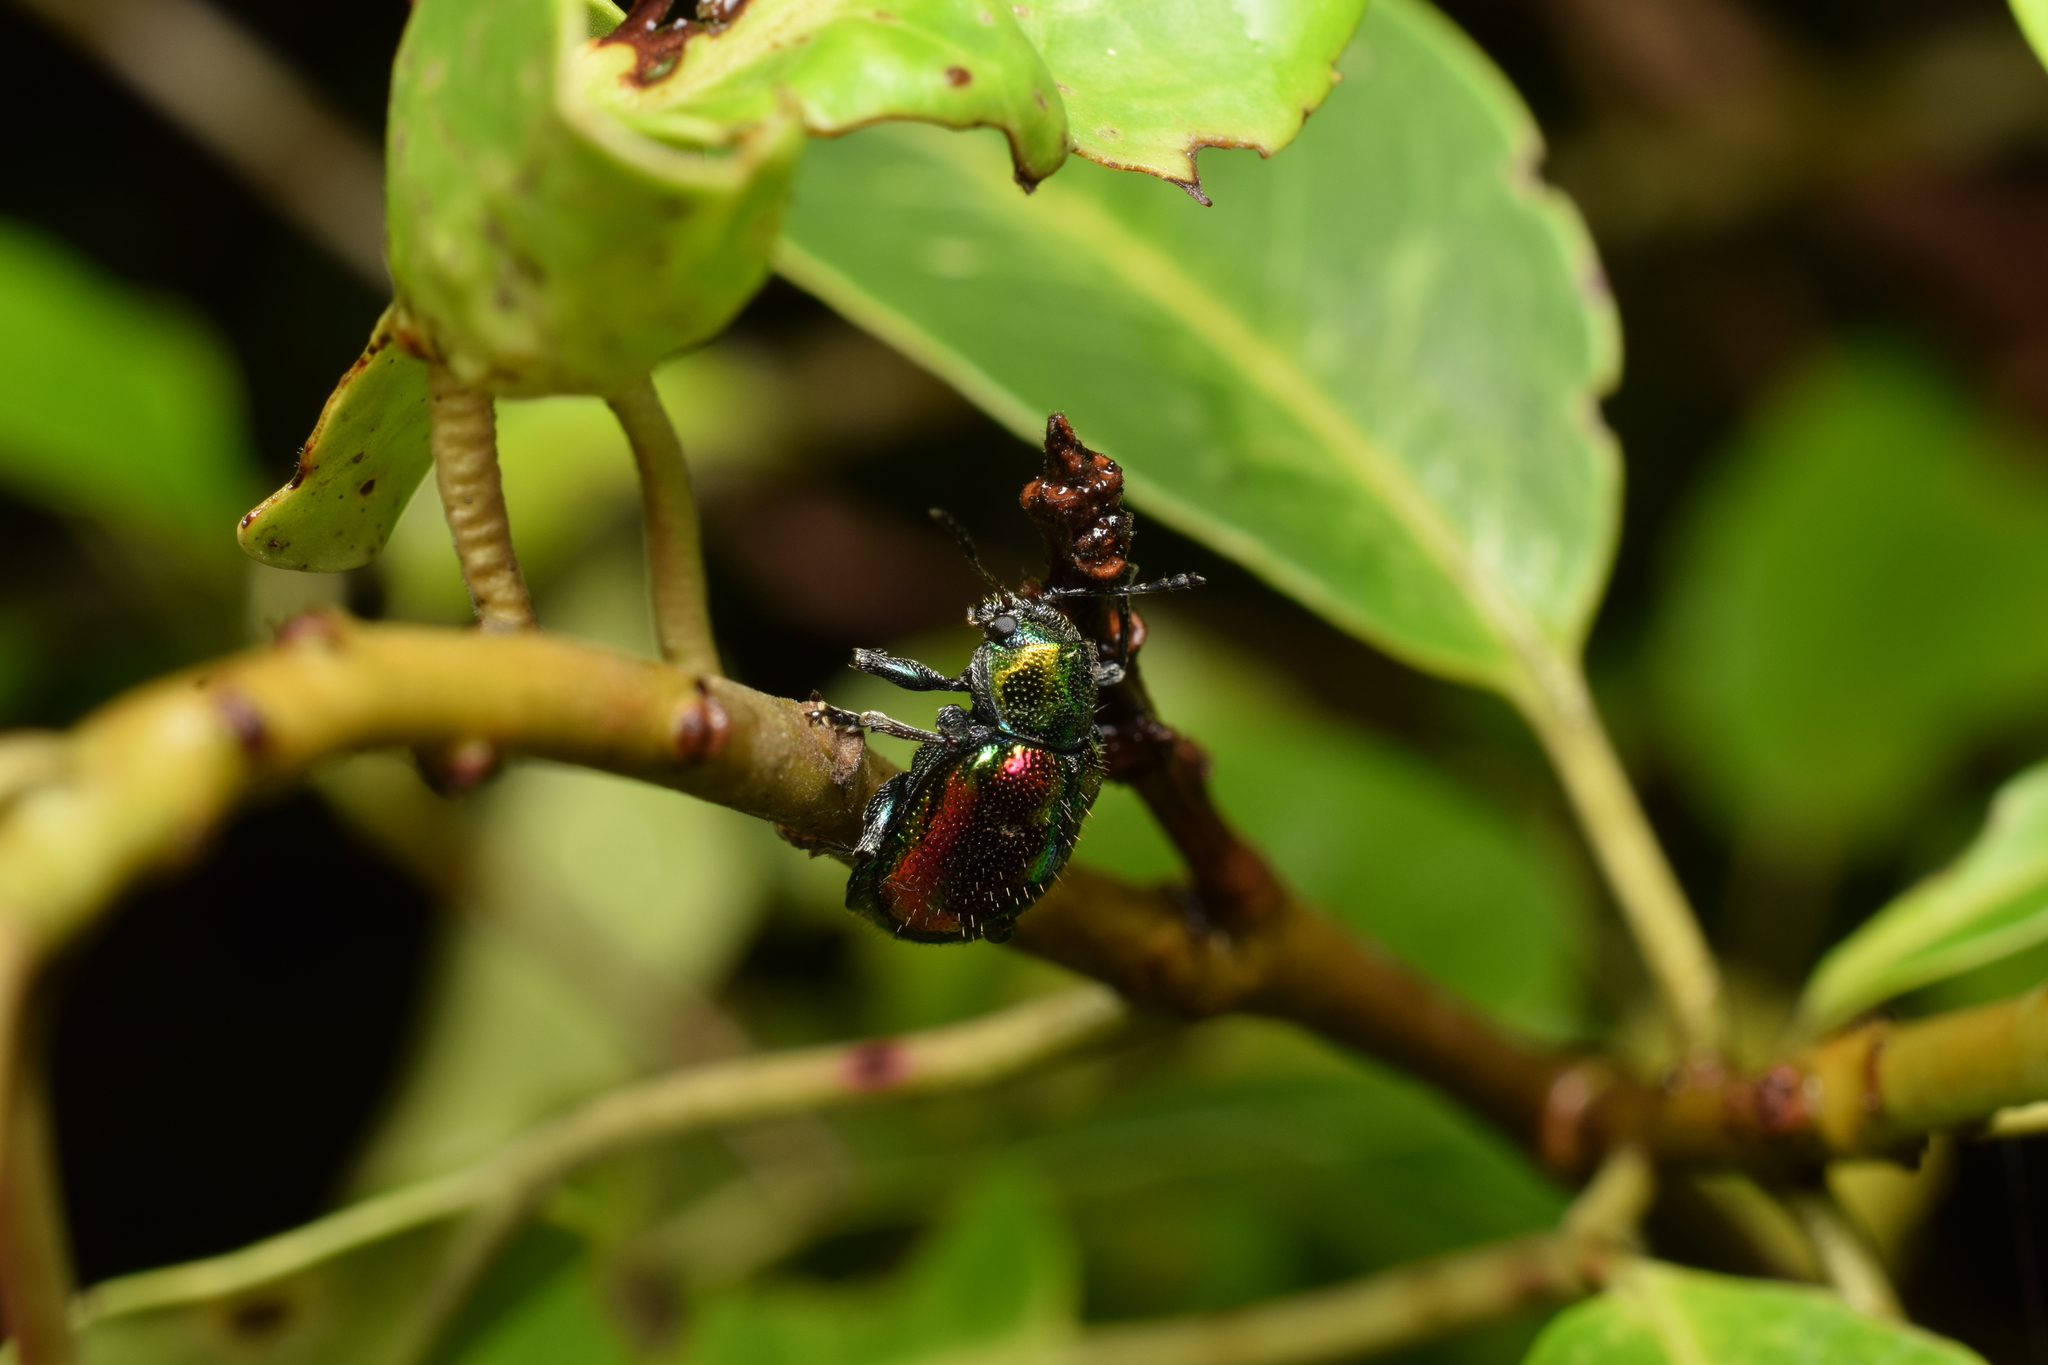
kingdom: Animalia
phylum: Arthropoda
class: Insecta
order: Coleoptera
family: Chrysomelidae
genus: Acrothinium
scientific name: Acrothinium gaschkevitchii
